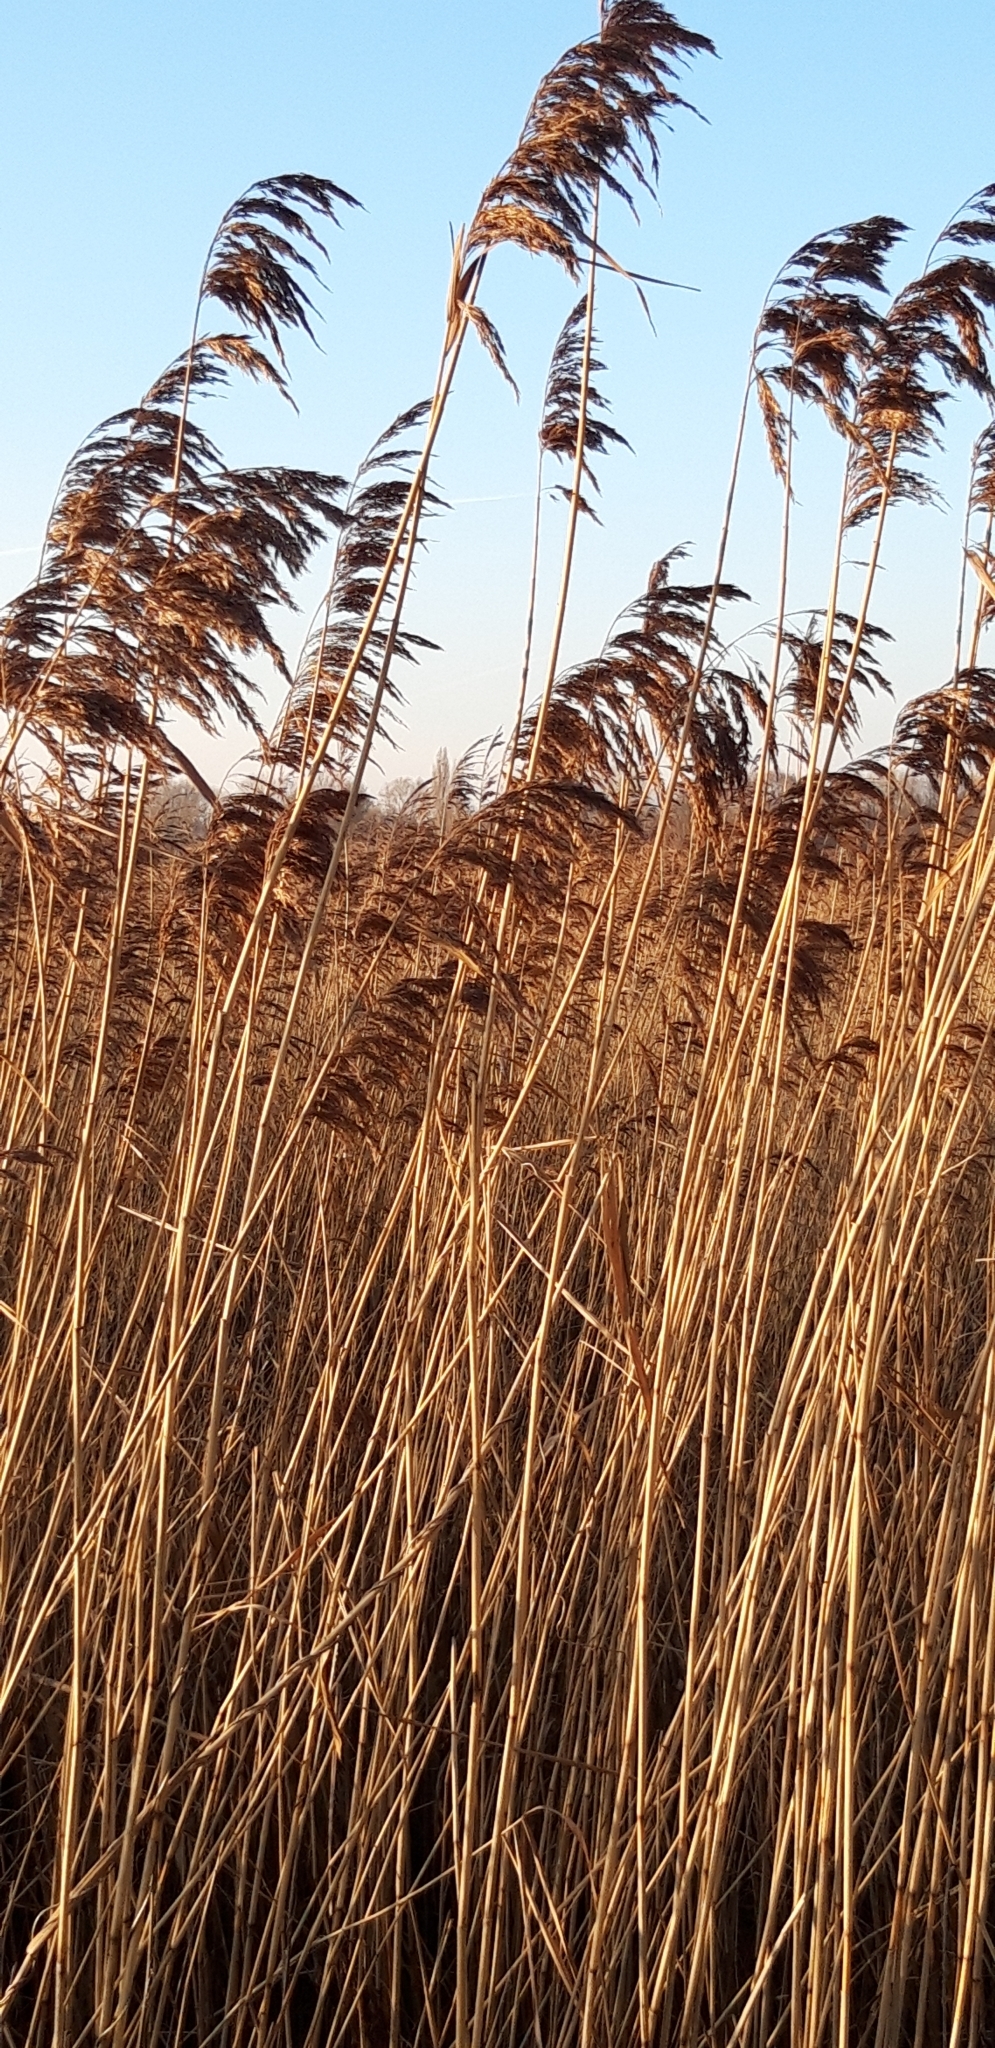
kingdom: Plantae
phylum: Tracheophyta
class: Liliopsida
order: Poales
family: Poaceae
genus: Phragmites
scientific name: Phragmites australis
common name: Common reed
